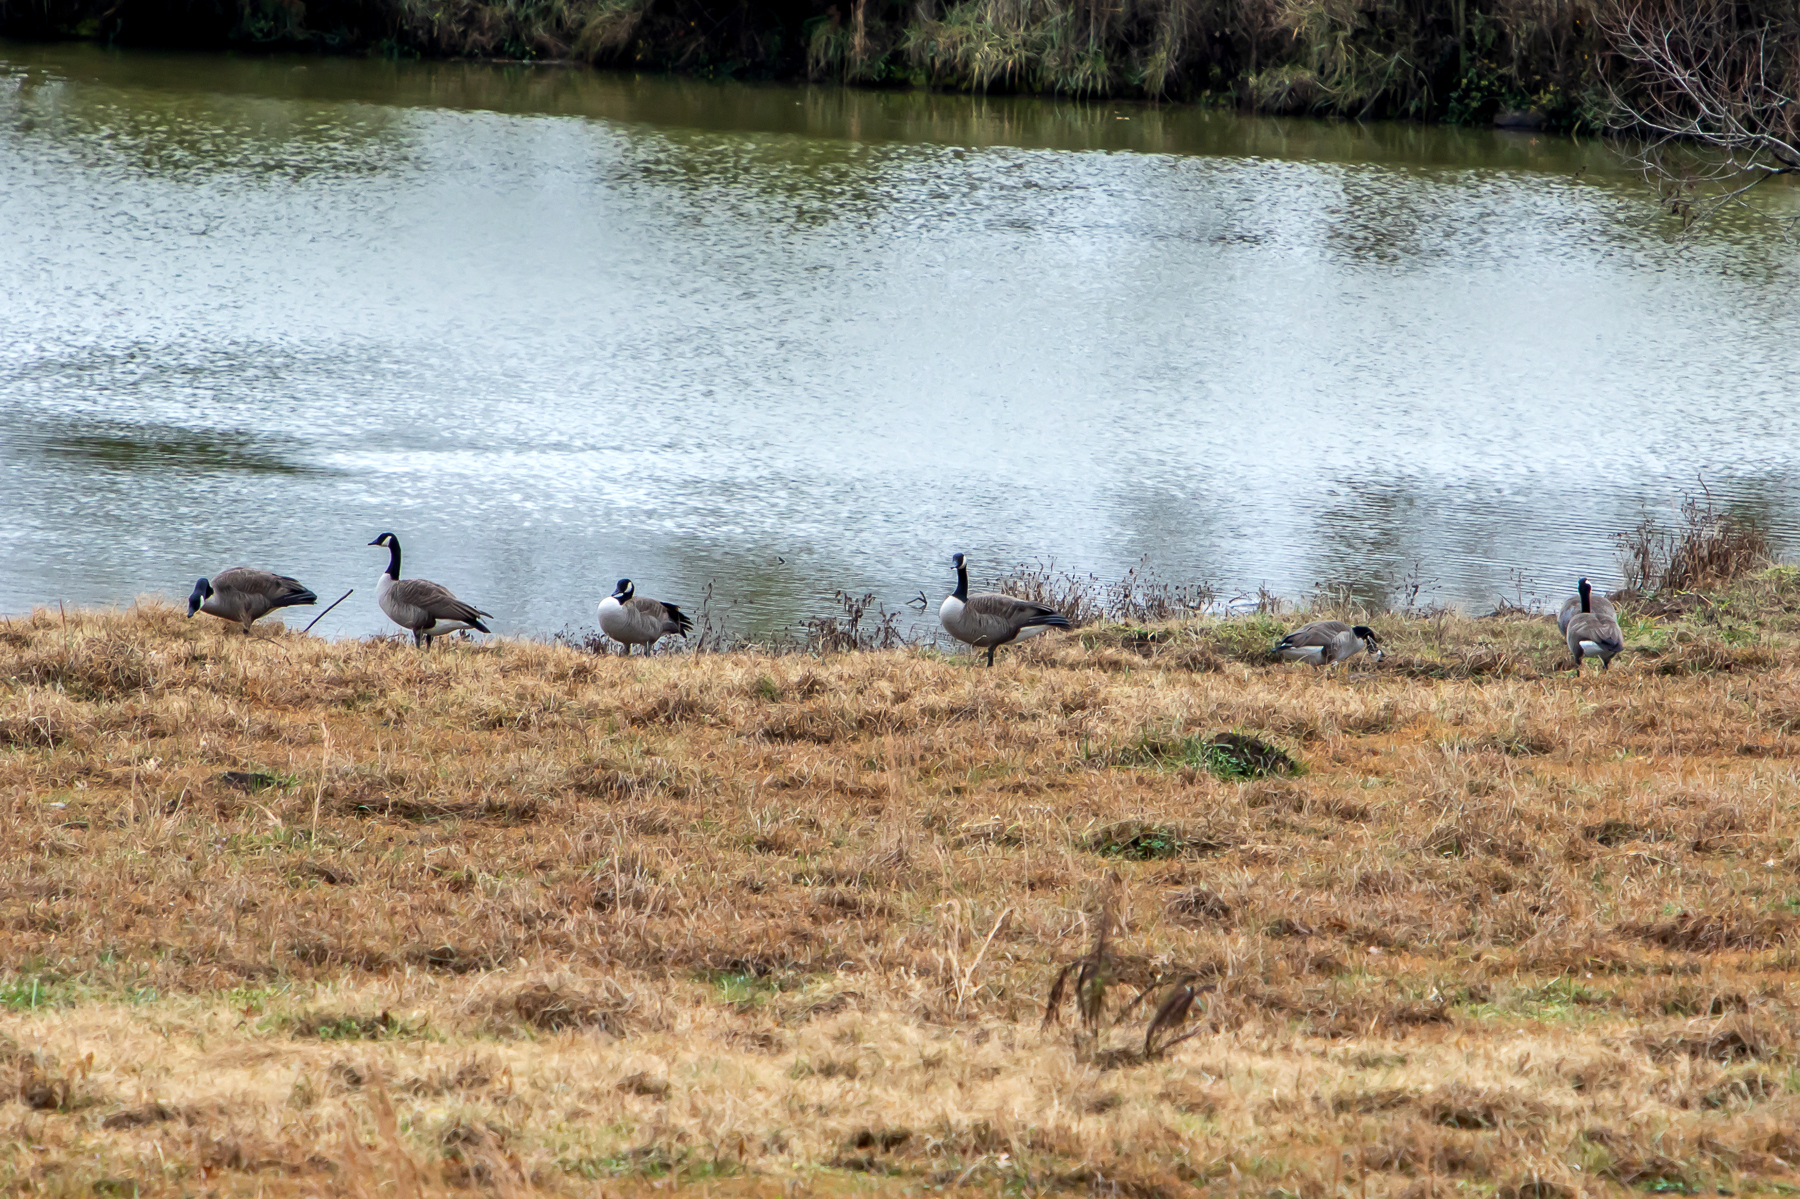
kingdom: Animalia
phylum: Chordata
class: Aves
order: Anseriformes
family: Anatidae
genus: Branta
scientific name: Branta canadensis
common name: Canada goose
